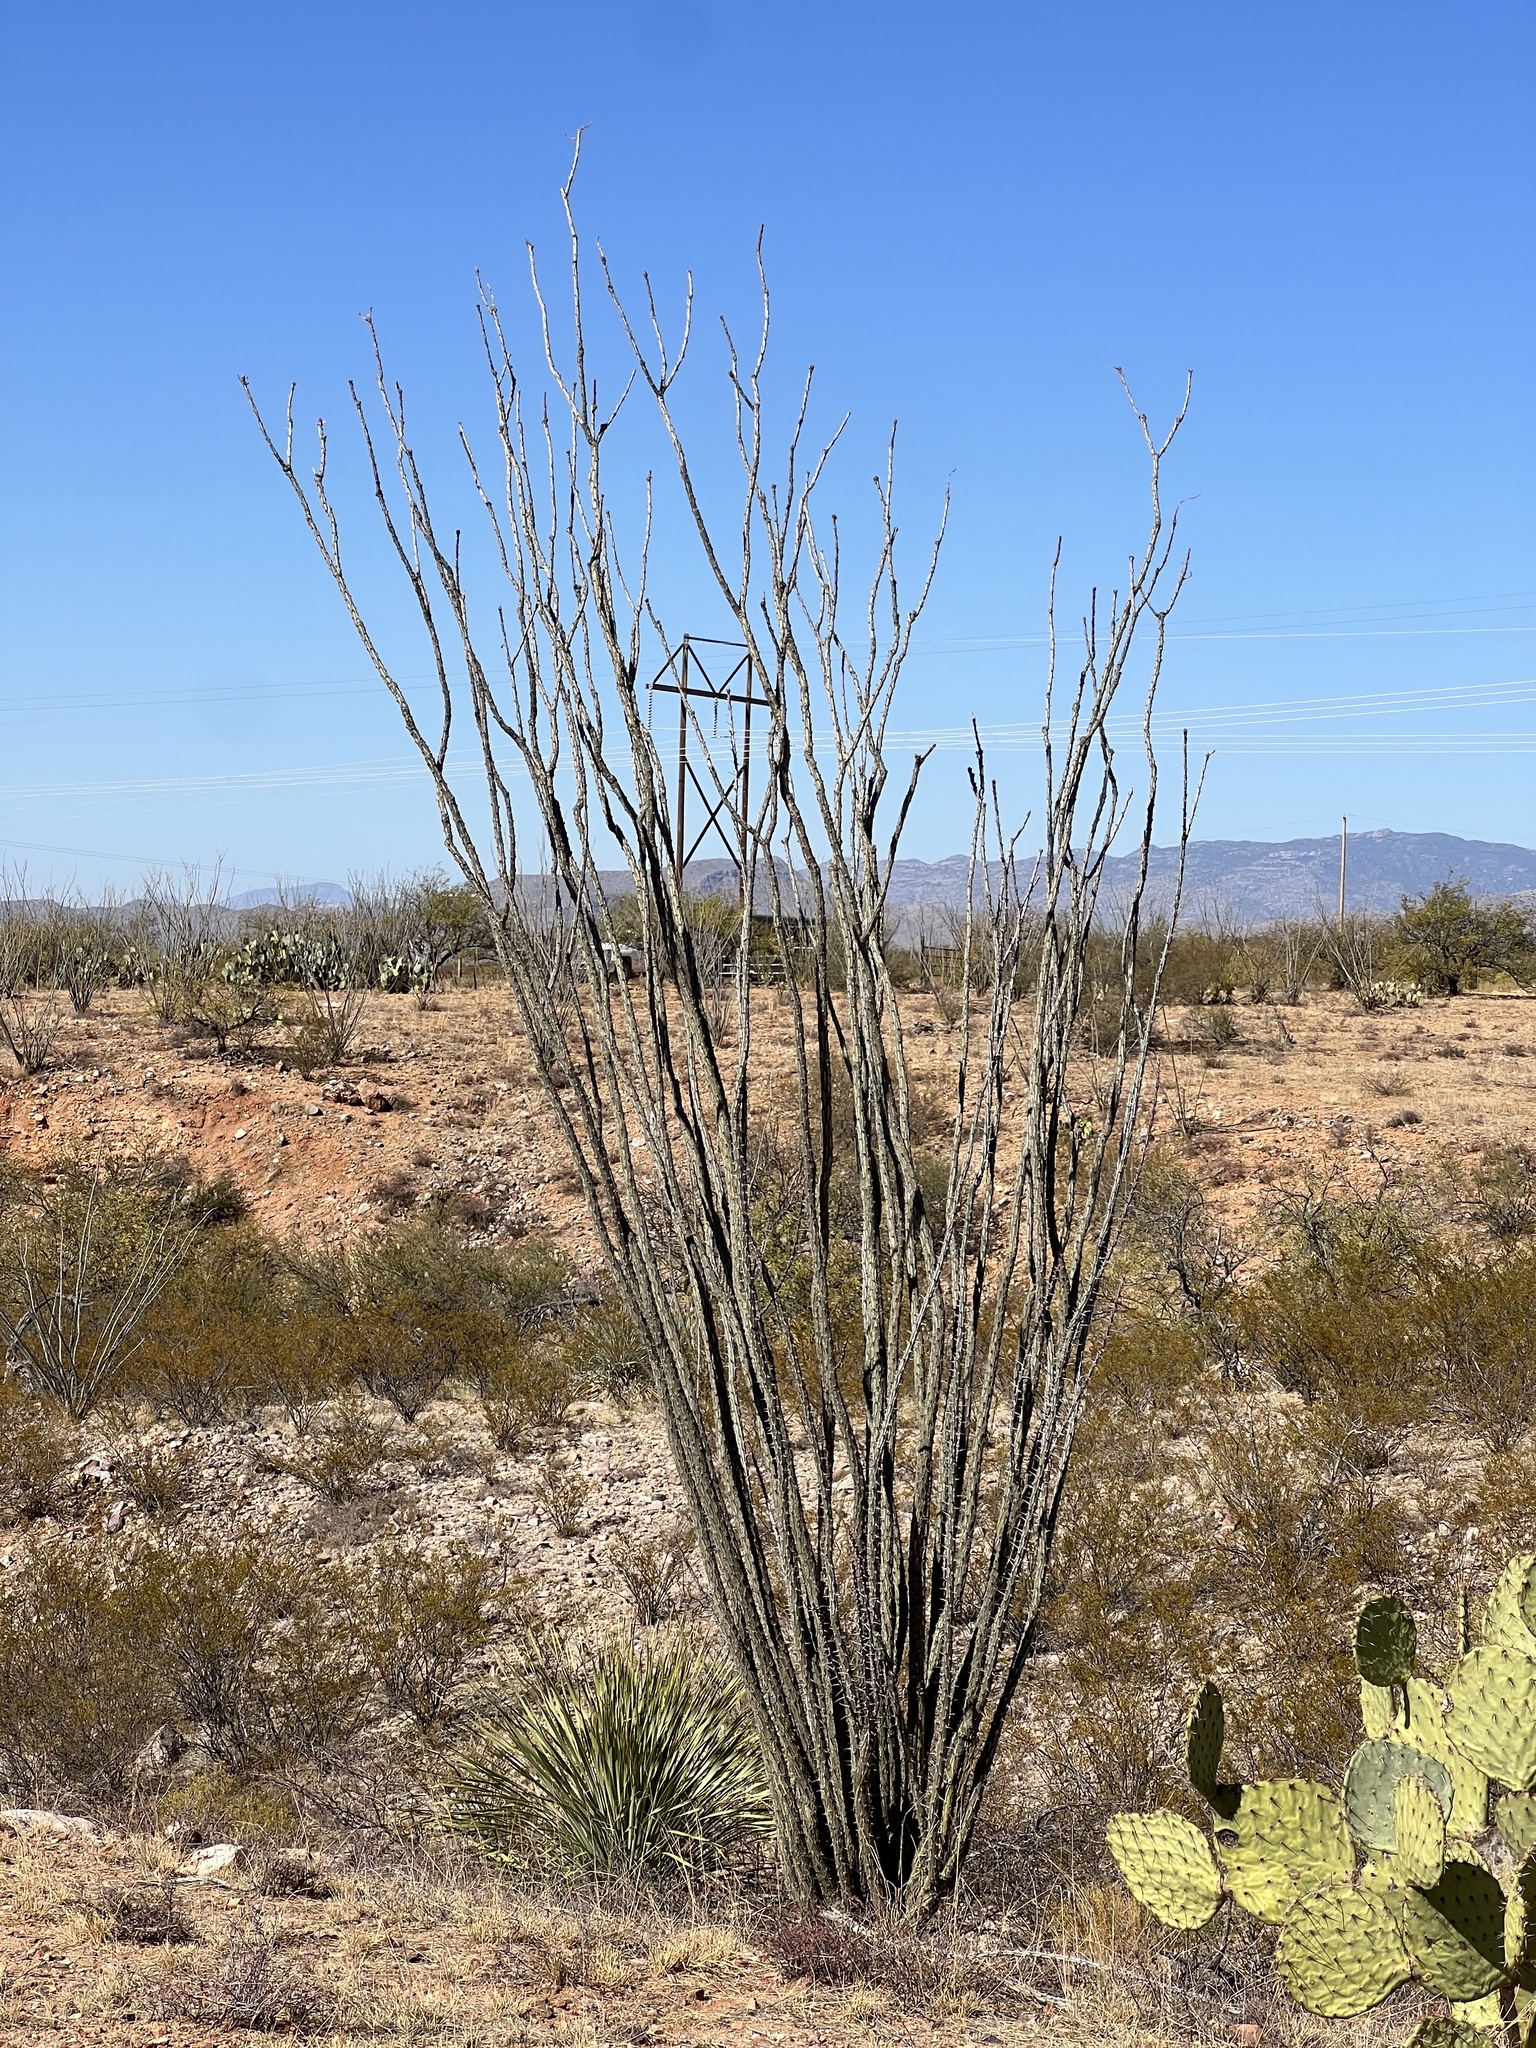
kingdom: Plantae
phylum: Tracheophyta
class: Magnoliopsida
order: Ericales
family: Fouquieriaceae
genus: Fouquieria
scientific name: Fouquieria splendens
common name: Vine-cactus
